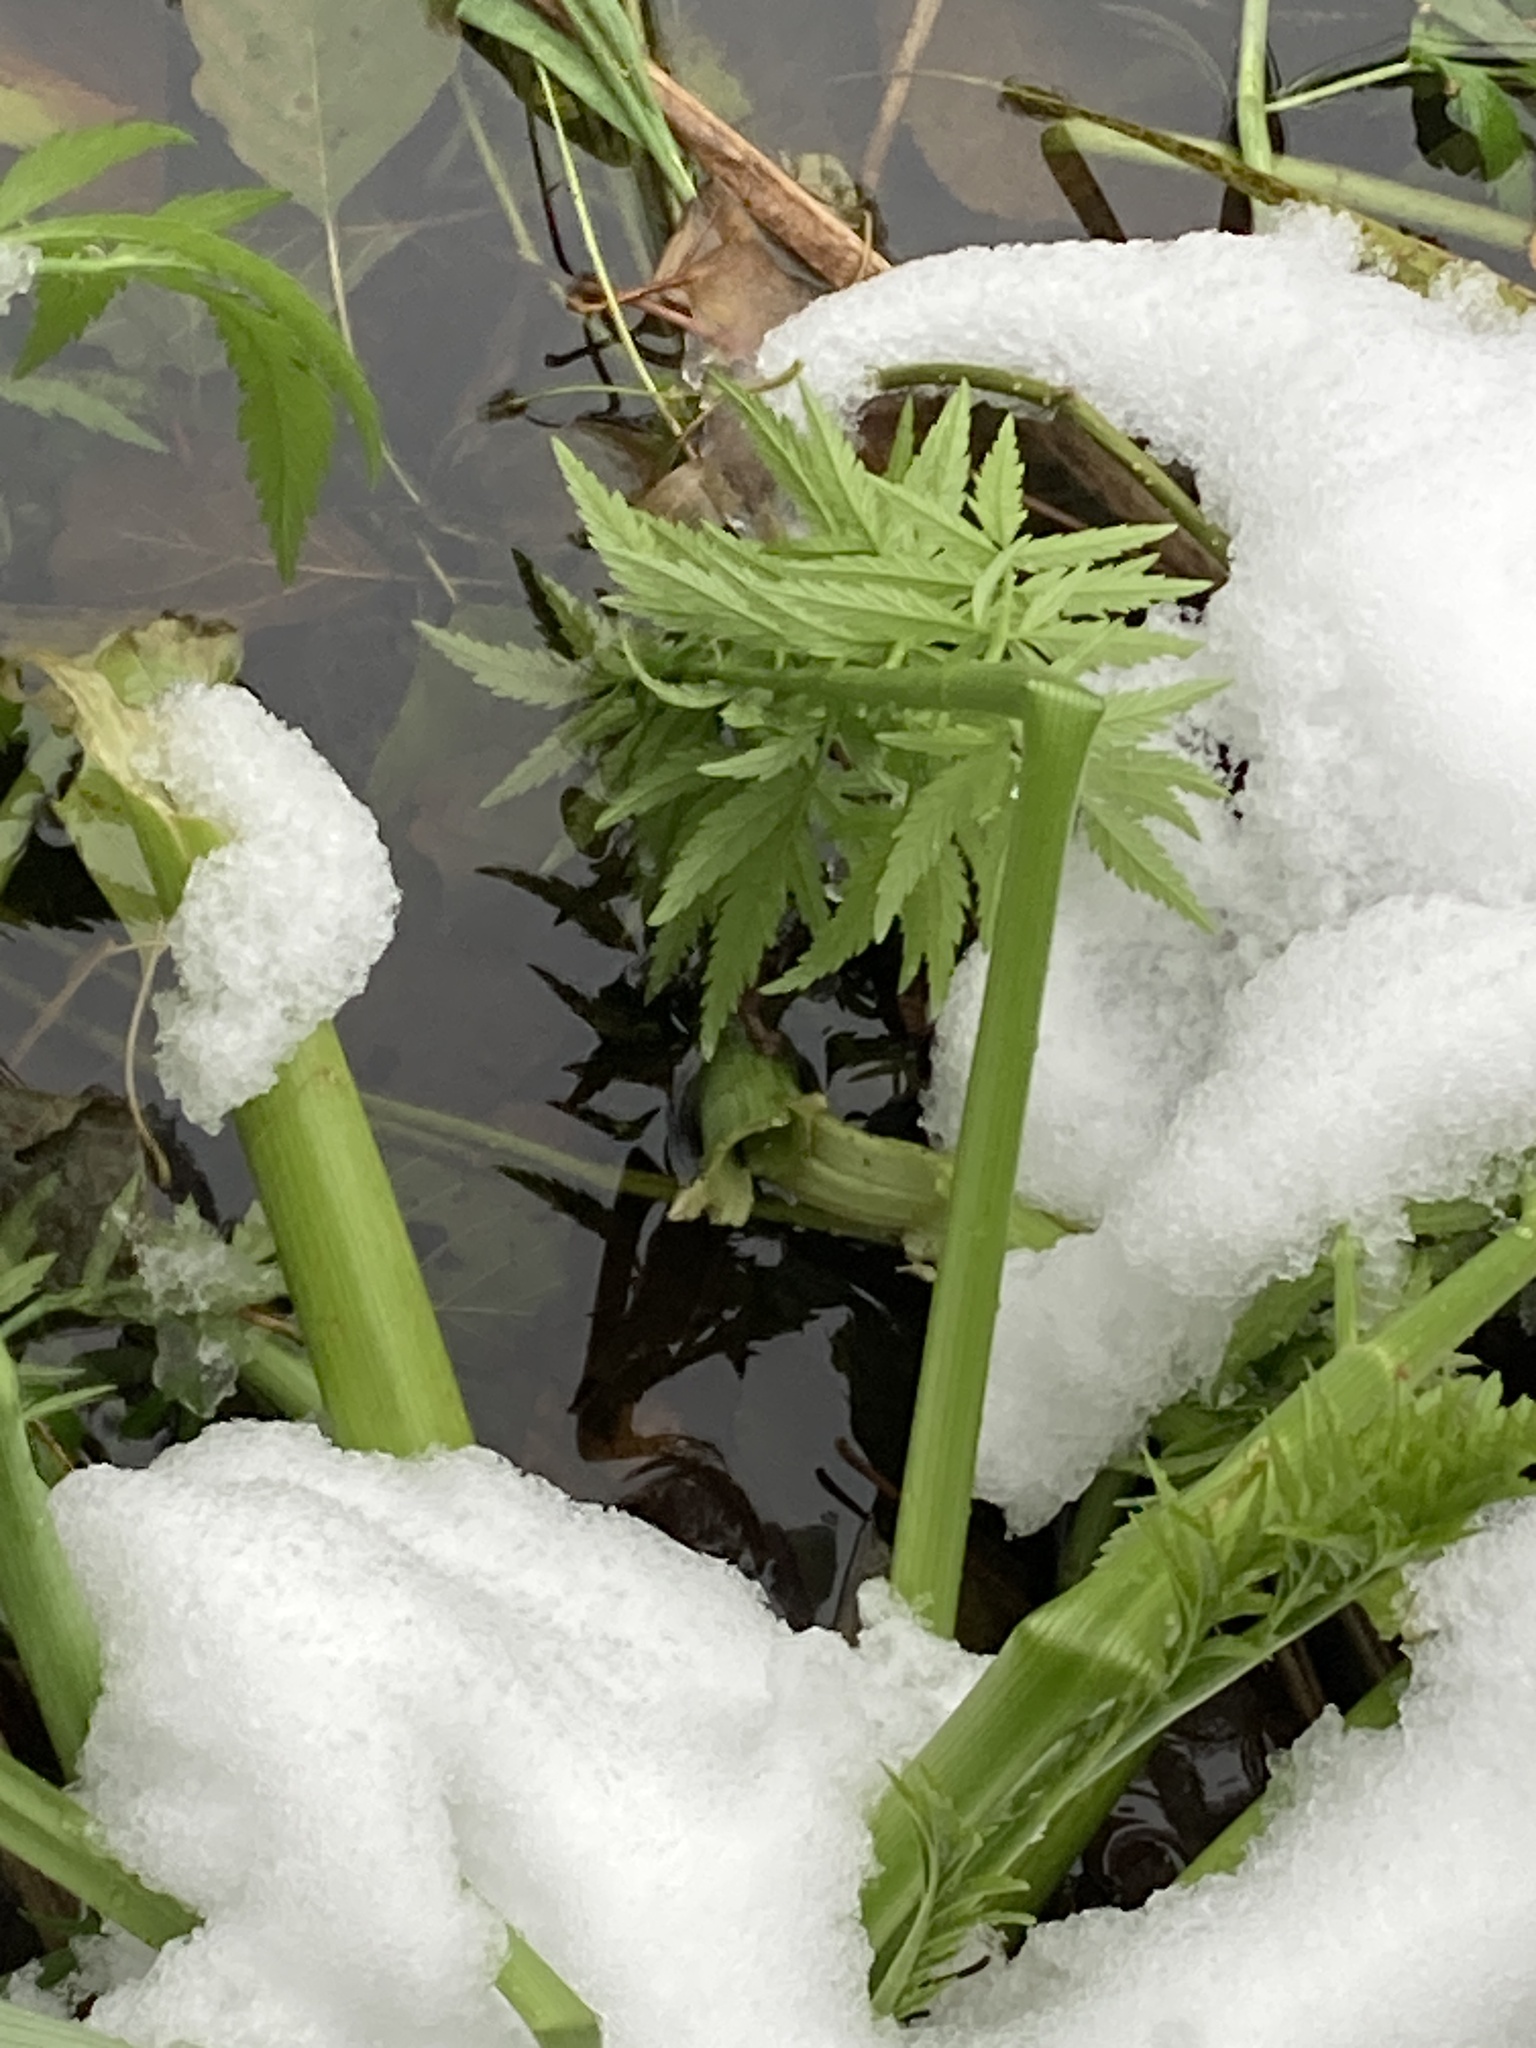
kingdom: Plantae
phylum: Tracheophyta
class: Magnoliopsida
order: Apiales
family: Apiaceae
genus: Cicuta
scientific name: Cicuta virosa
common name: Cowbane
